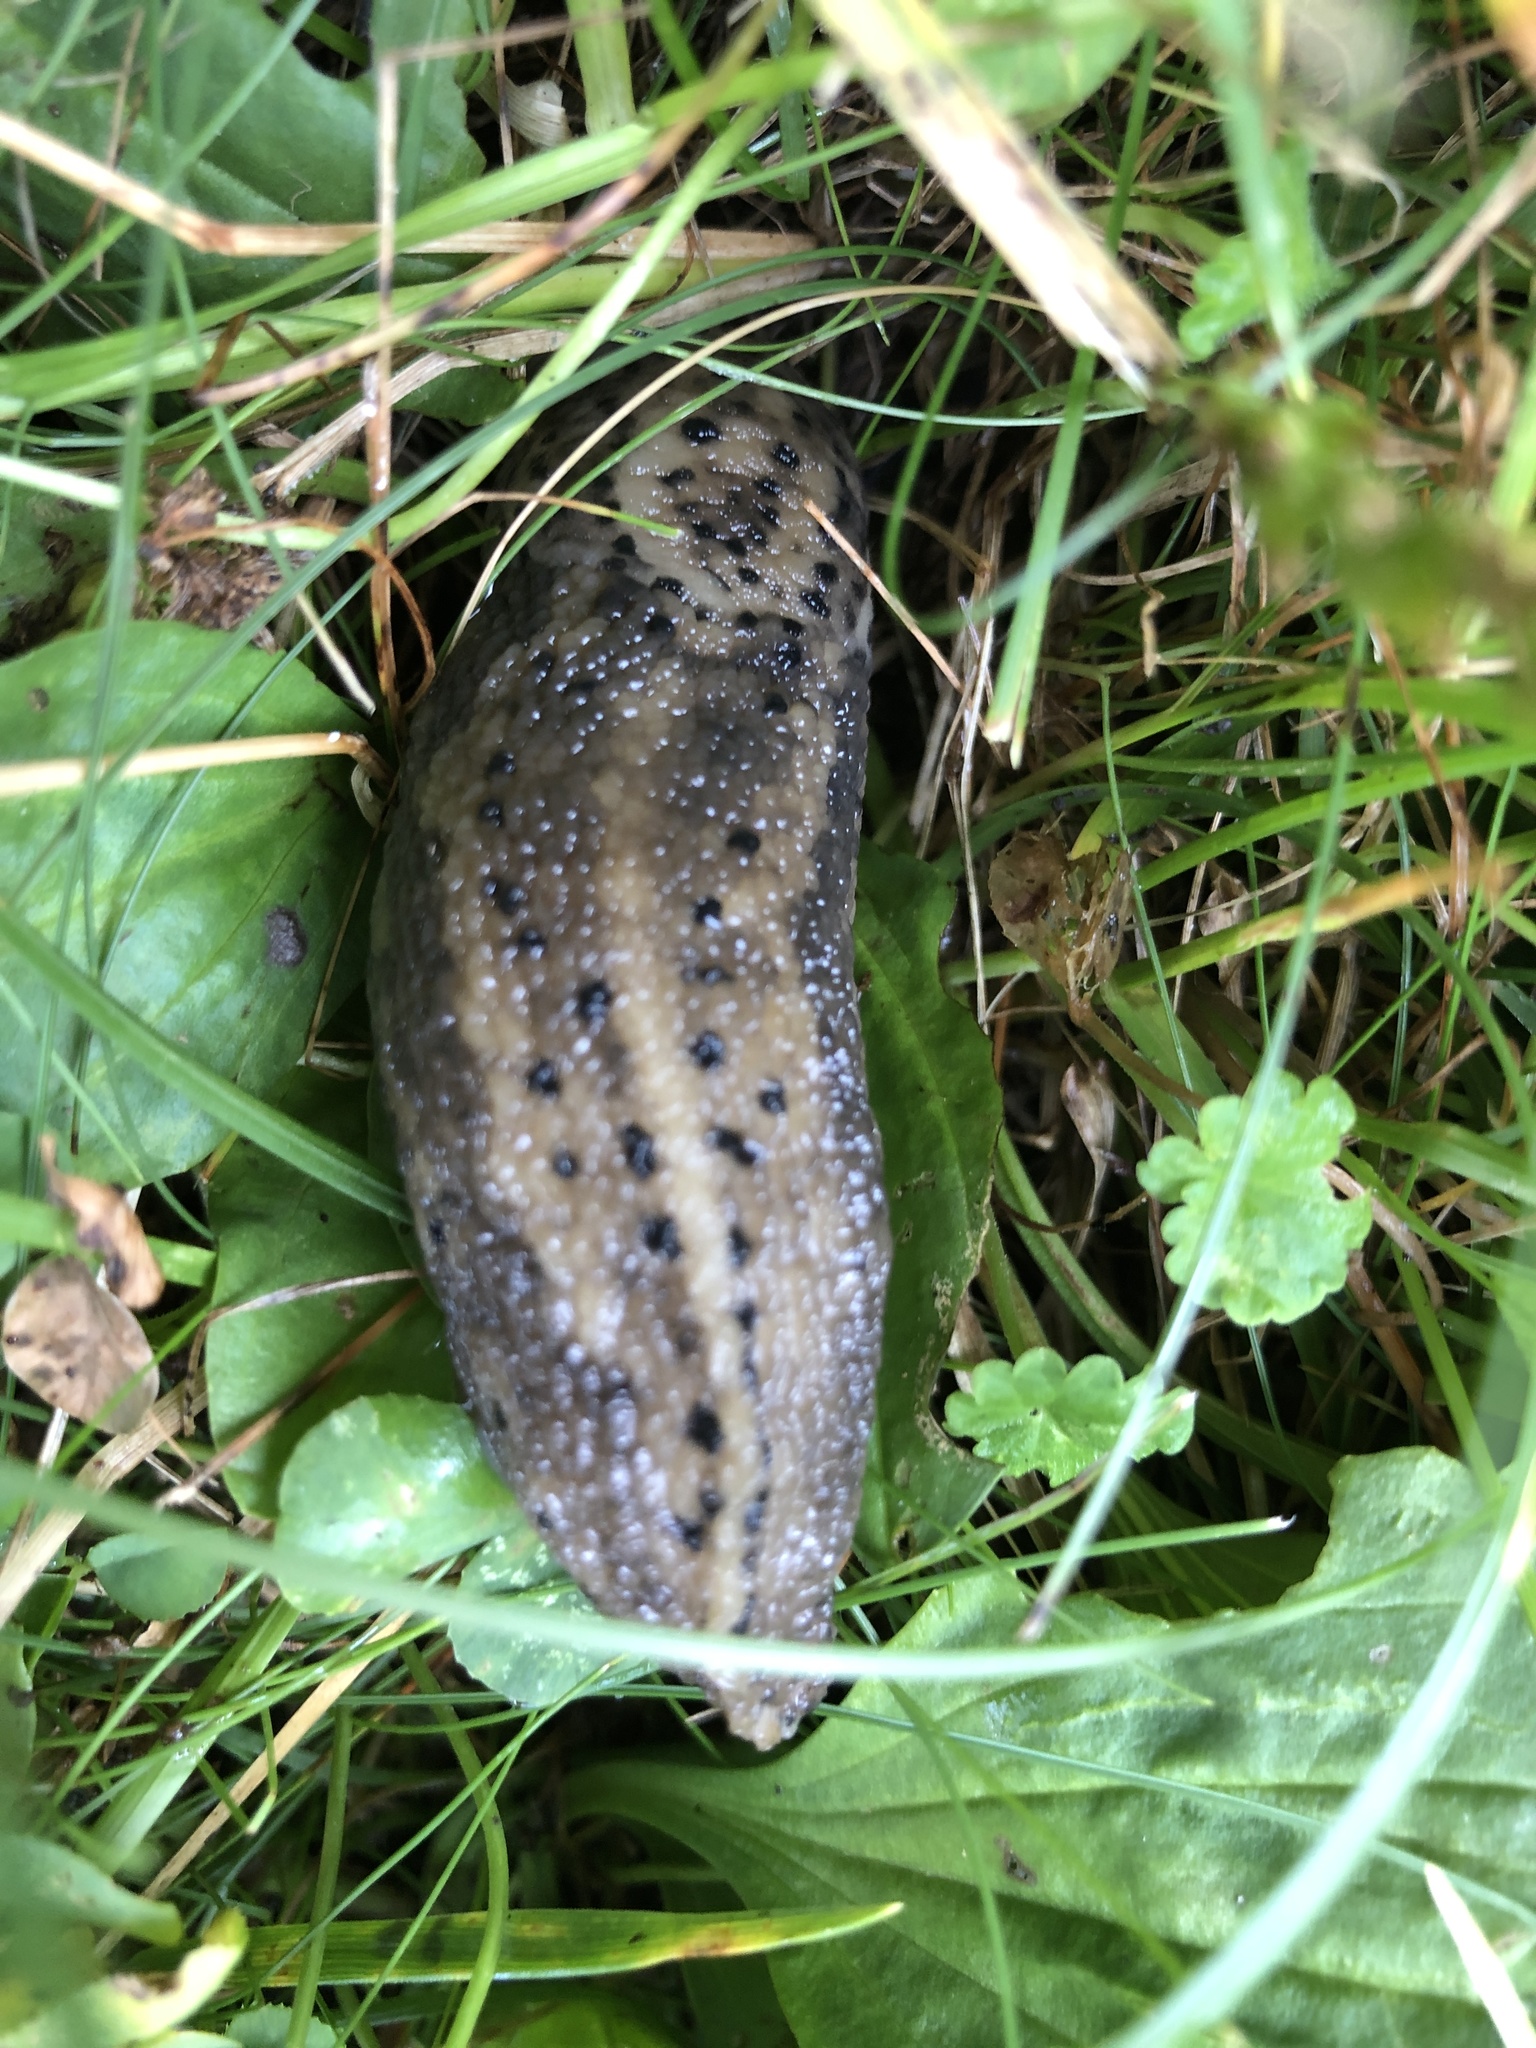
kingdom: Animalia
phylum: Mollusca
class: Gastropoda
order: Stylommatophora
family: Limacidae
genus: Limax
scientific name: Limax maximus
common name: Great grey slug
